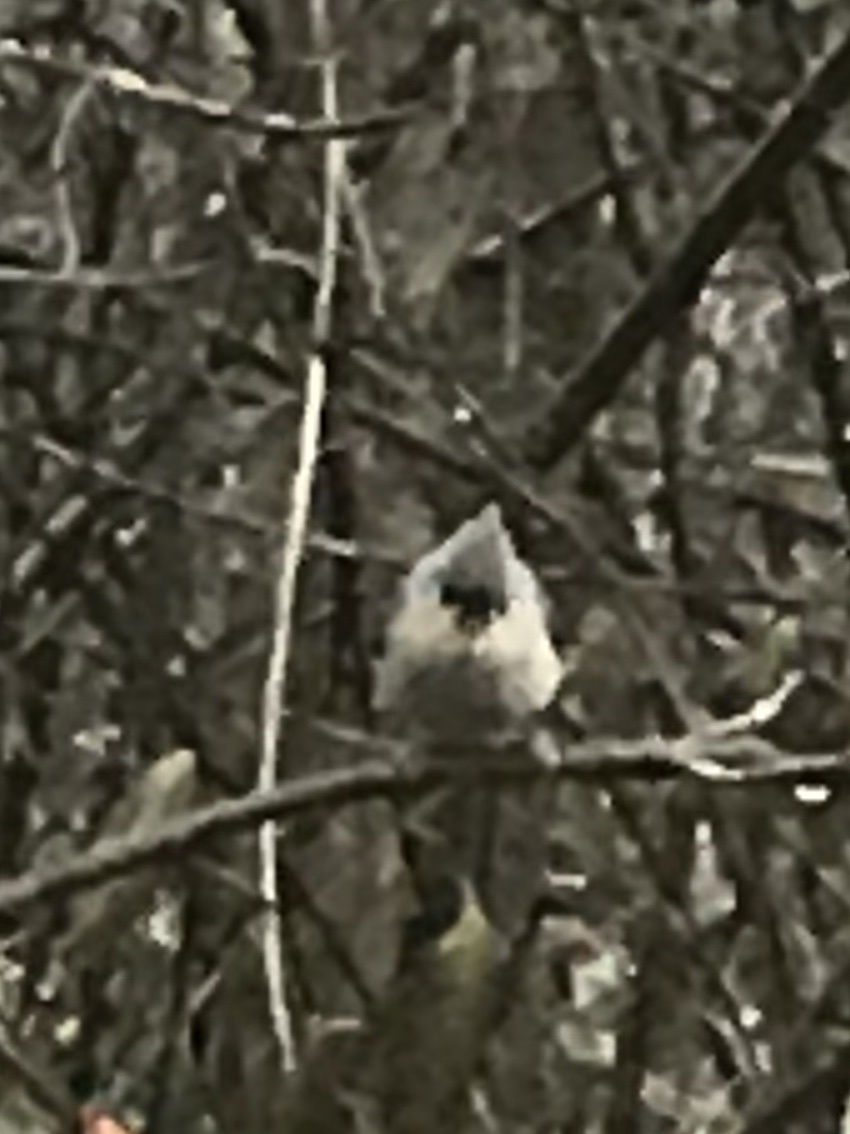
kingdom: Animalia
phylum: Chordata
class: Aves
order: Passeriformes
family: Paridae
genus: Baeolophus
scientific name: Baeolophus bicolor
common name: Tufted titmouse
